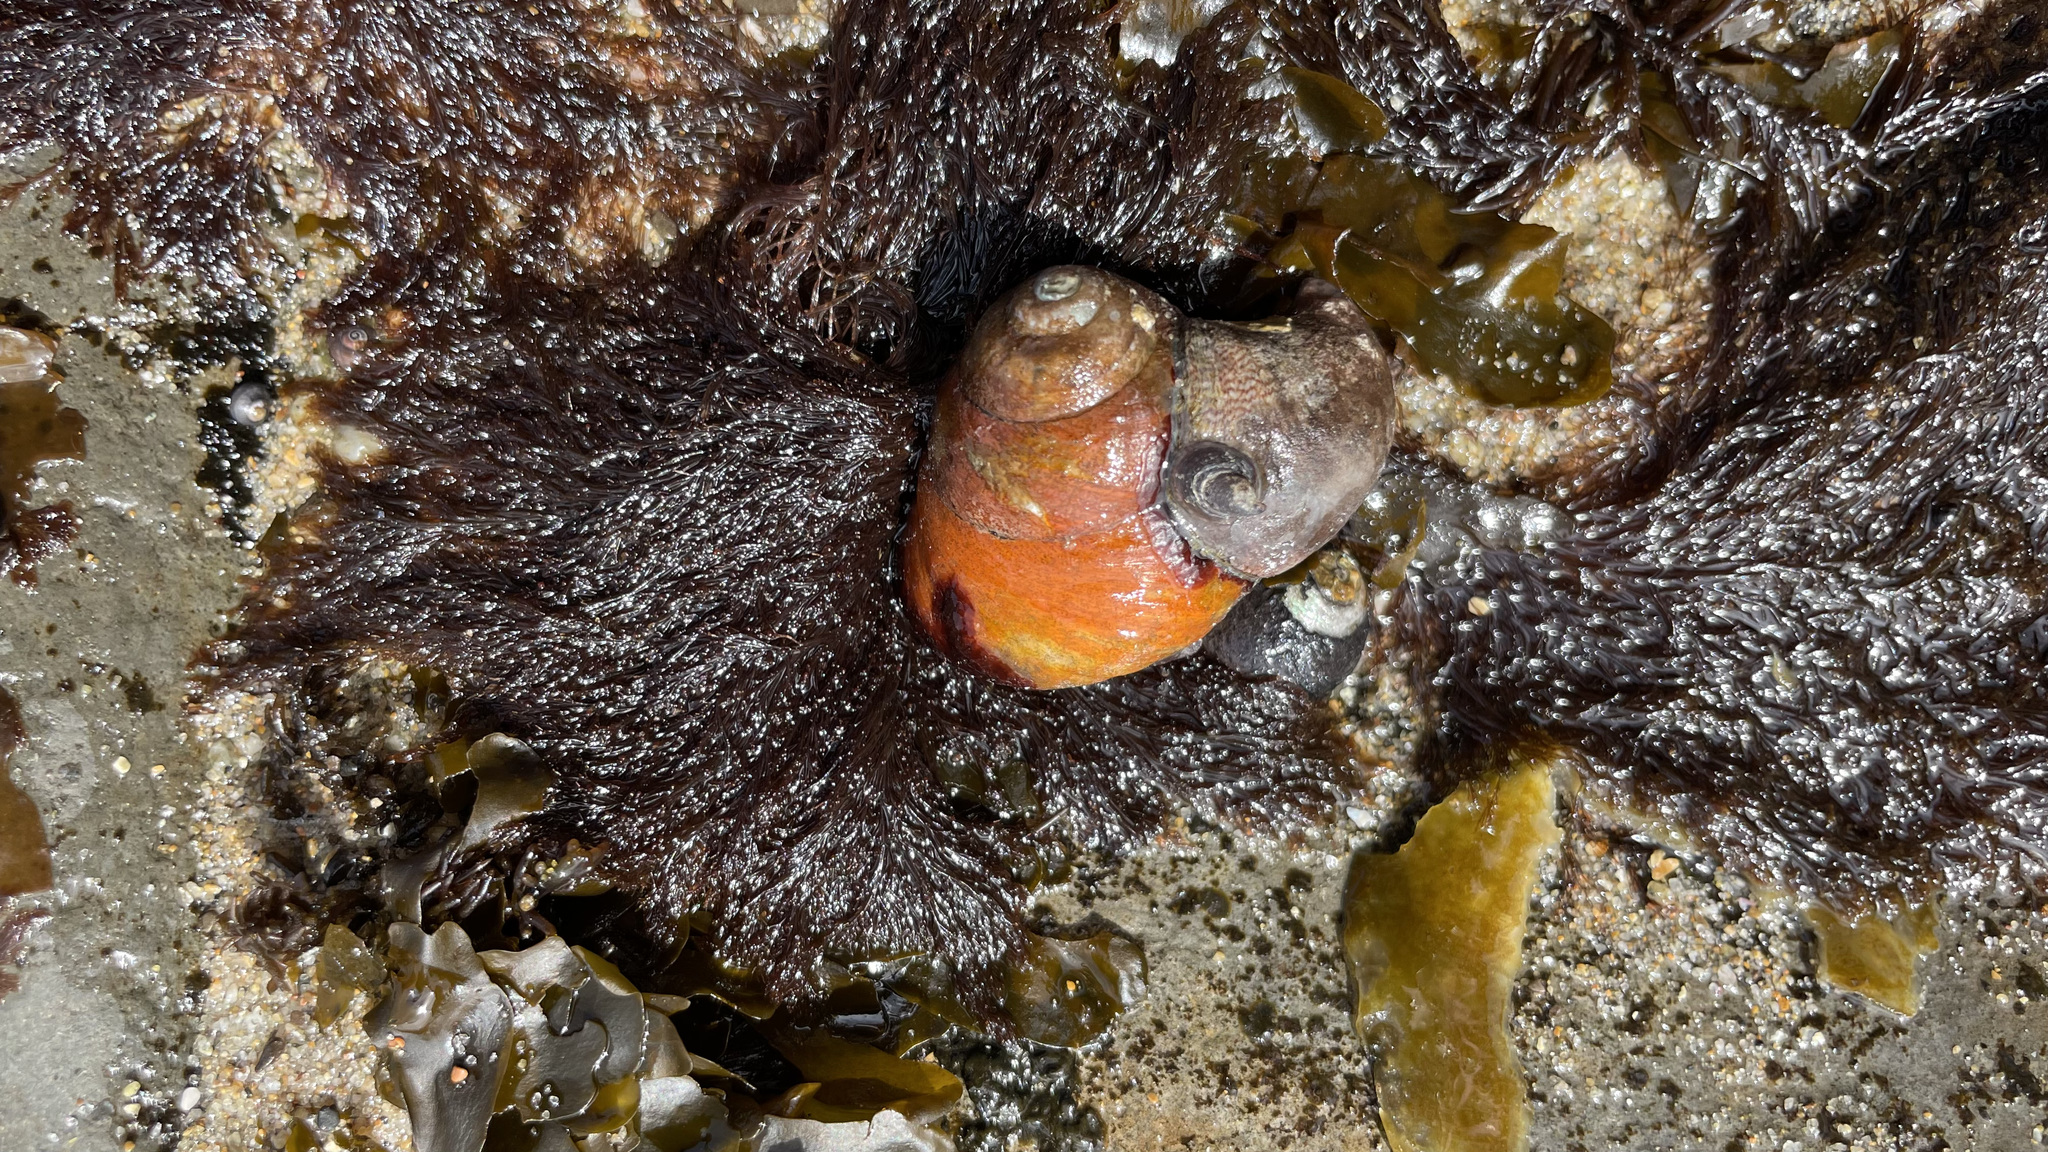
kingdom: Animalia
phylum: Mollusca
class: Gastropoda
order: Trochida
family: Tegulidae
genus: Tegula
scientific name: Tegula brunnea
